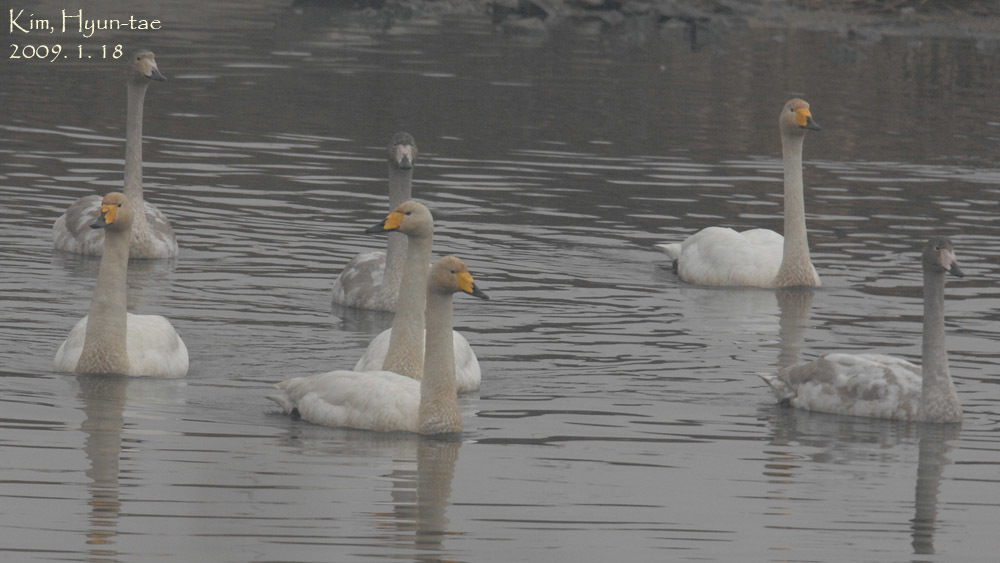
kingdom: Animalia
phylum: Chordata
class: Aves
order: Anseriformes
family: Anatidae
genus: Cygnus
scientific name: Cygnus cygnus
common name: Whooper swan
